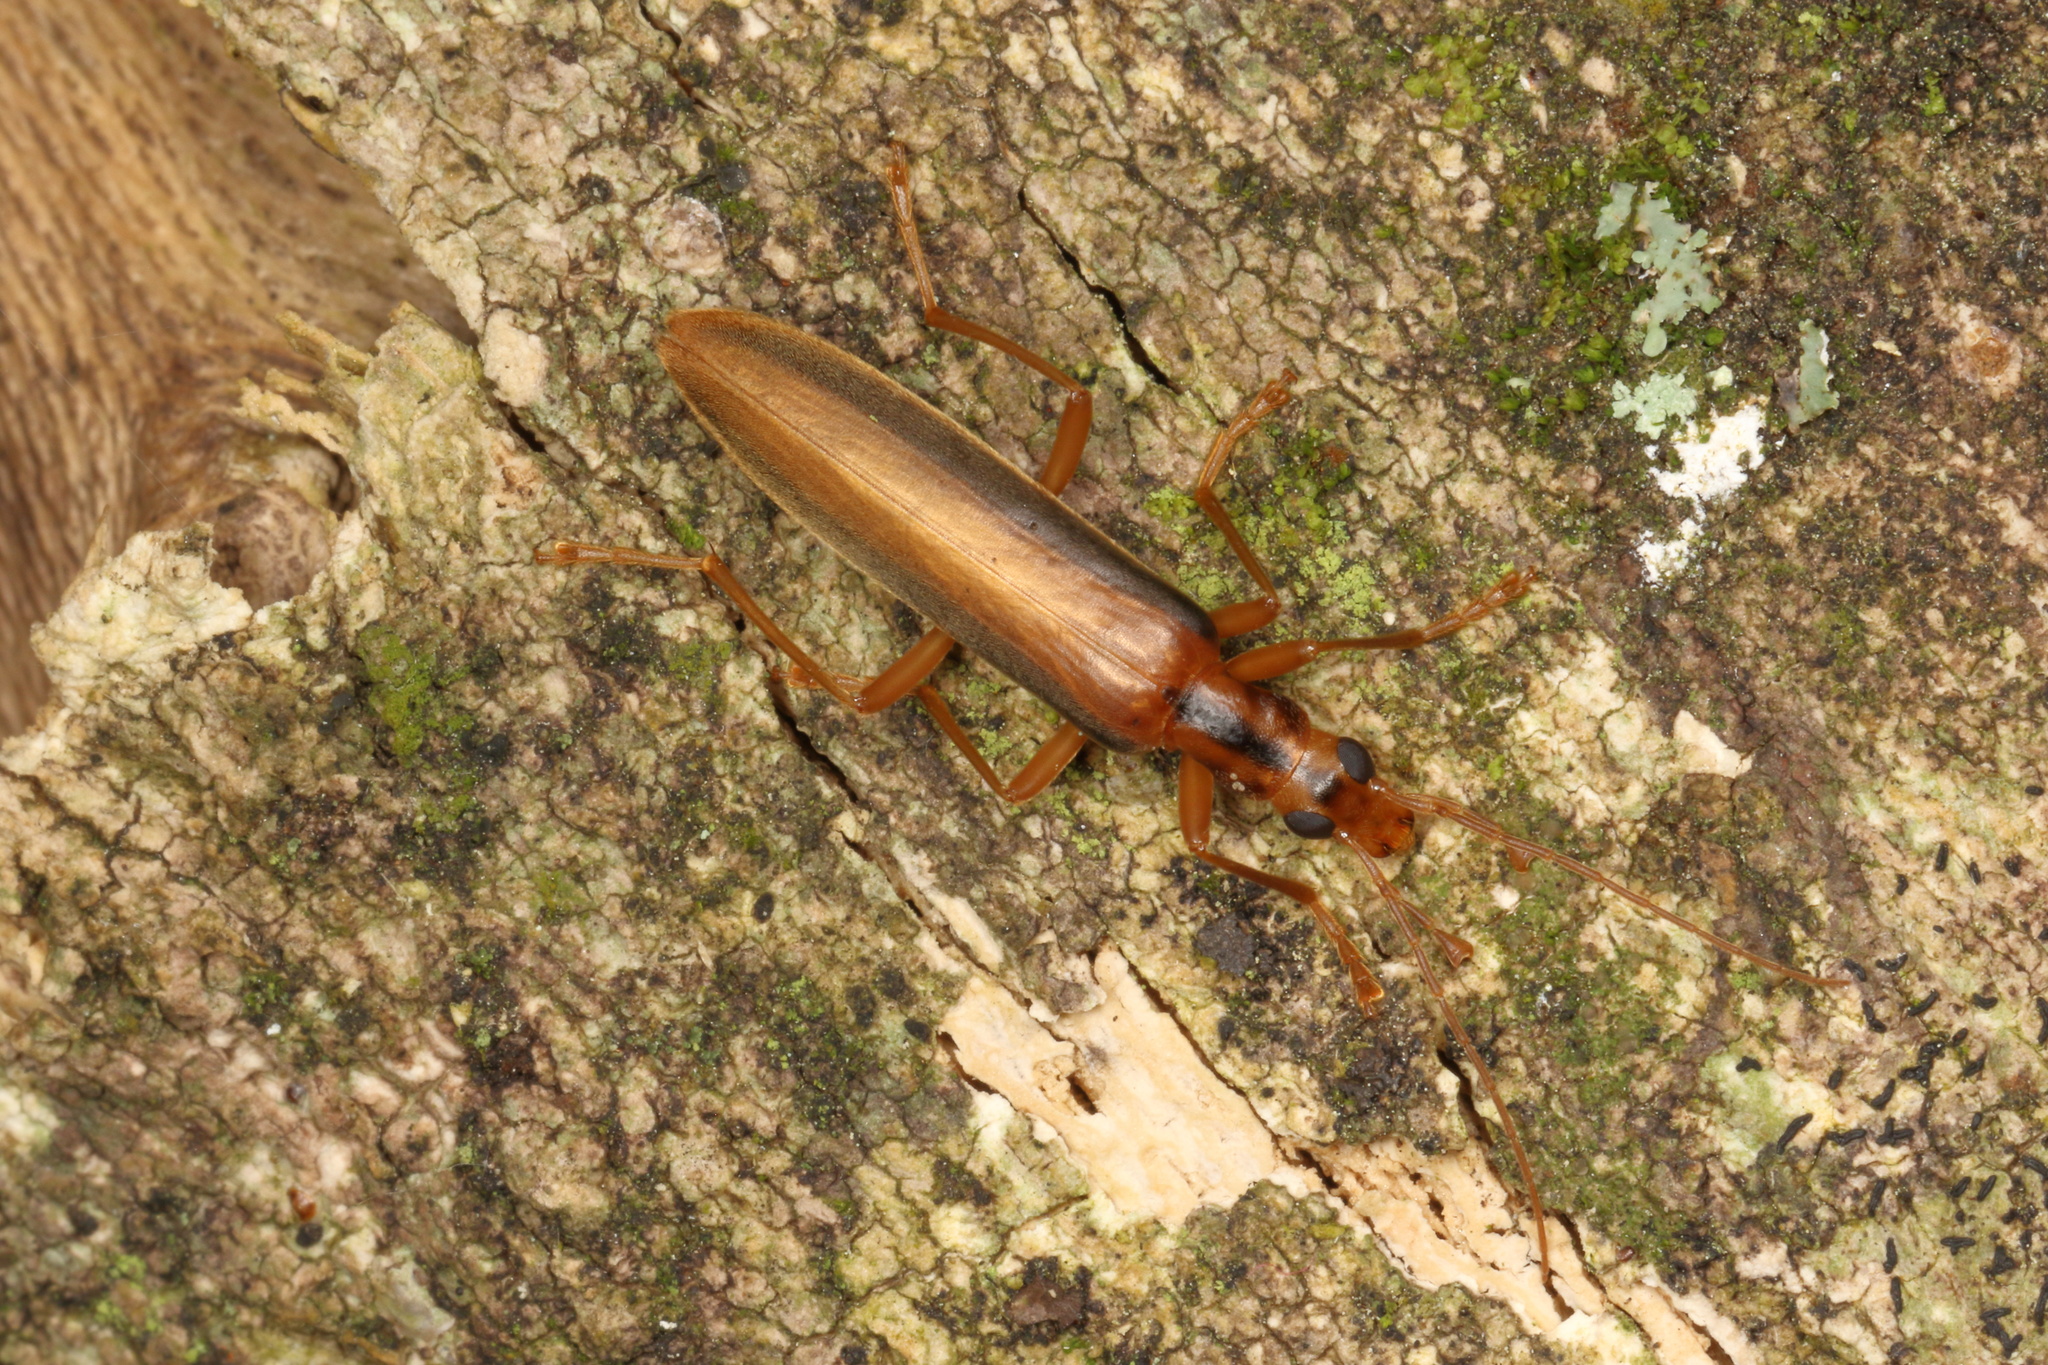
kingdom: Animalia
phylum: Arthropoda
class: Insecta
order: Coleoptera
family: Oedemeridae
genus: Thelyphassa
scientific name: Thelyphassa
